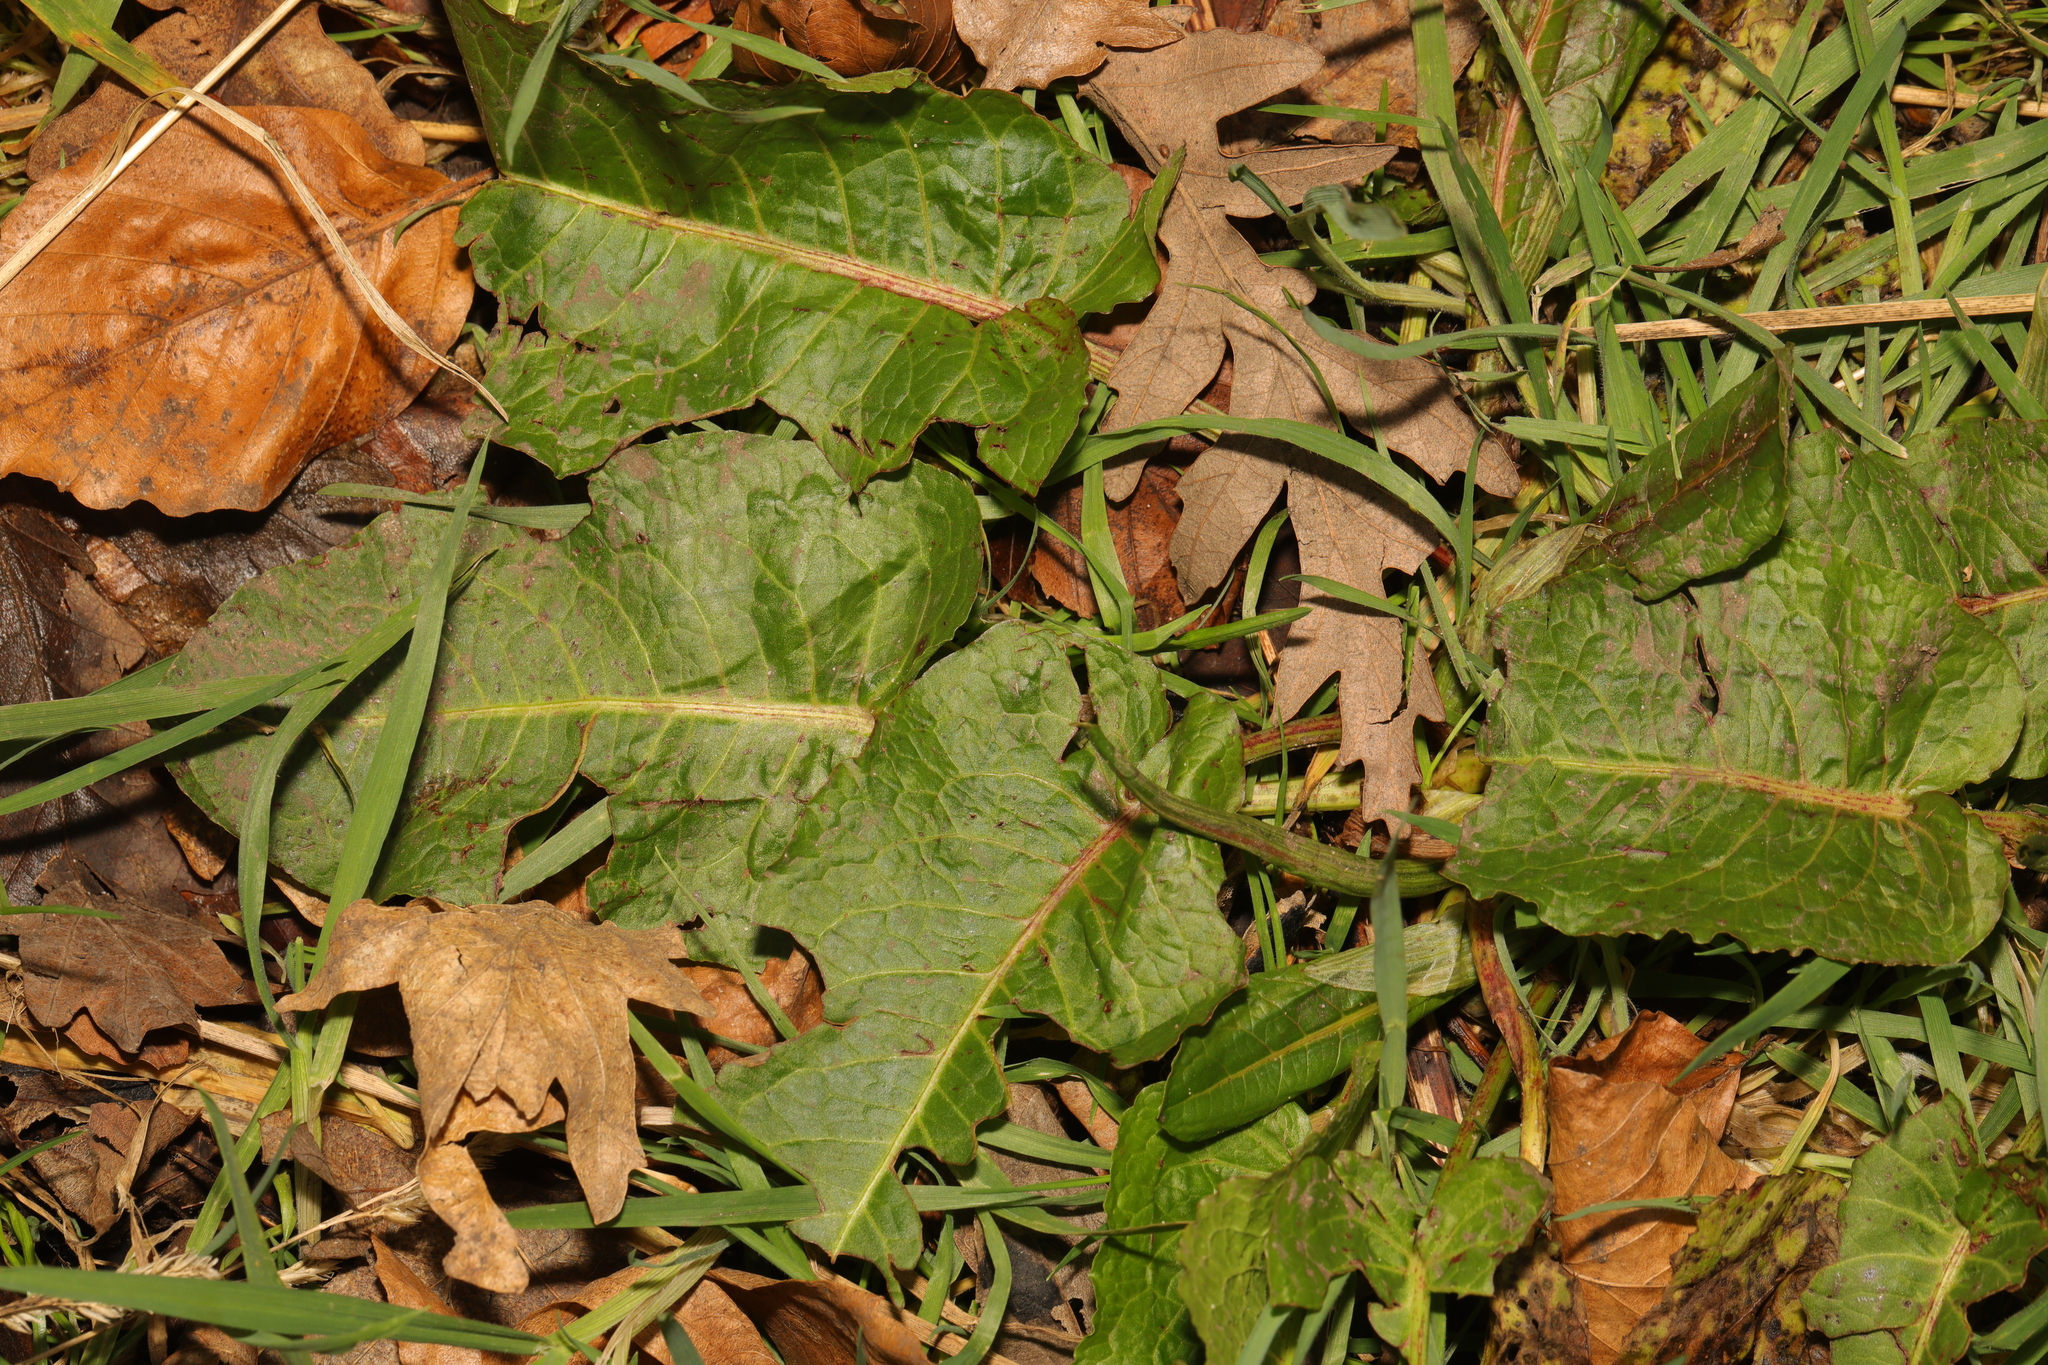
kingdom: Plantae
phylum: Tracheophyta
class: Magnoliopsida
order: Caryophyllales
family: Polygonaceae
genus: Rumex
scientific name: Rumex obtusifolius
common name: Bitter dock
